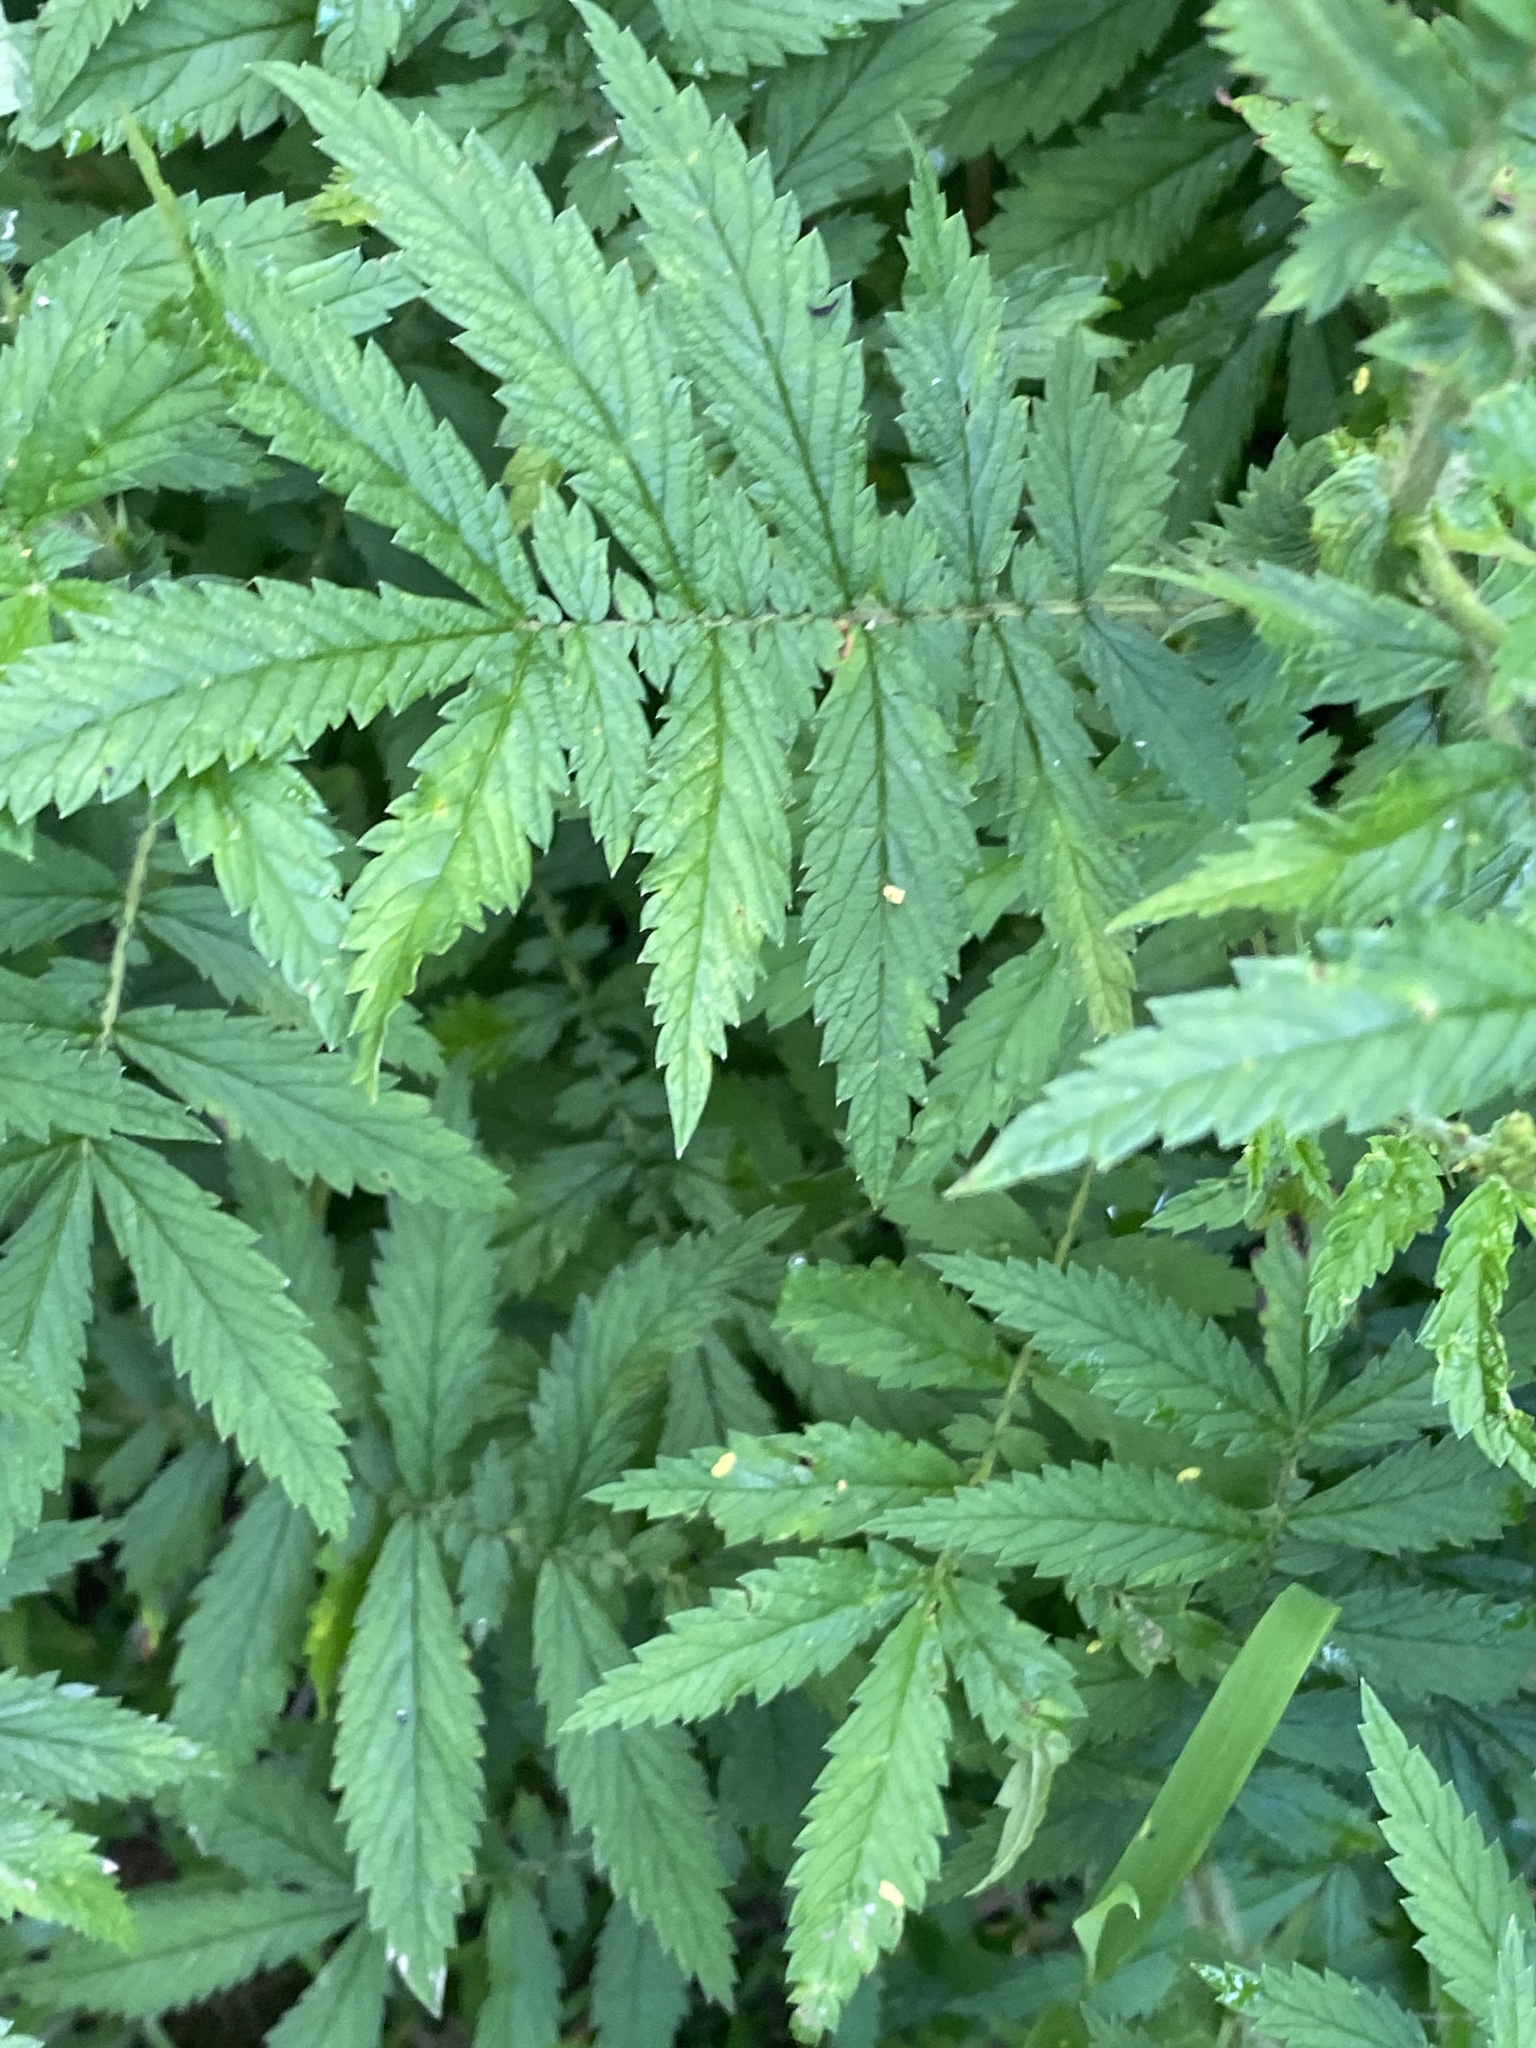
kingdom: Plantae
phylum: Tracheophyta
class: Magnoliopsida
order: Rosales
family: Rosaceae
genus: Agrimonia
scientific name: Agrimonia parviflora
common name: Harvest-lice
